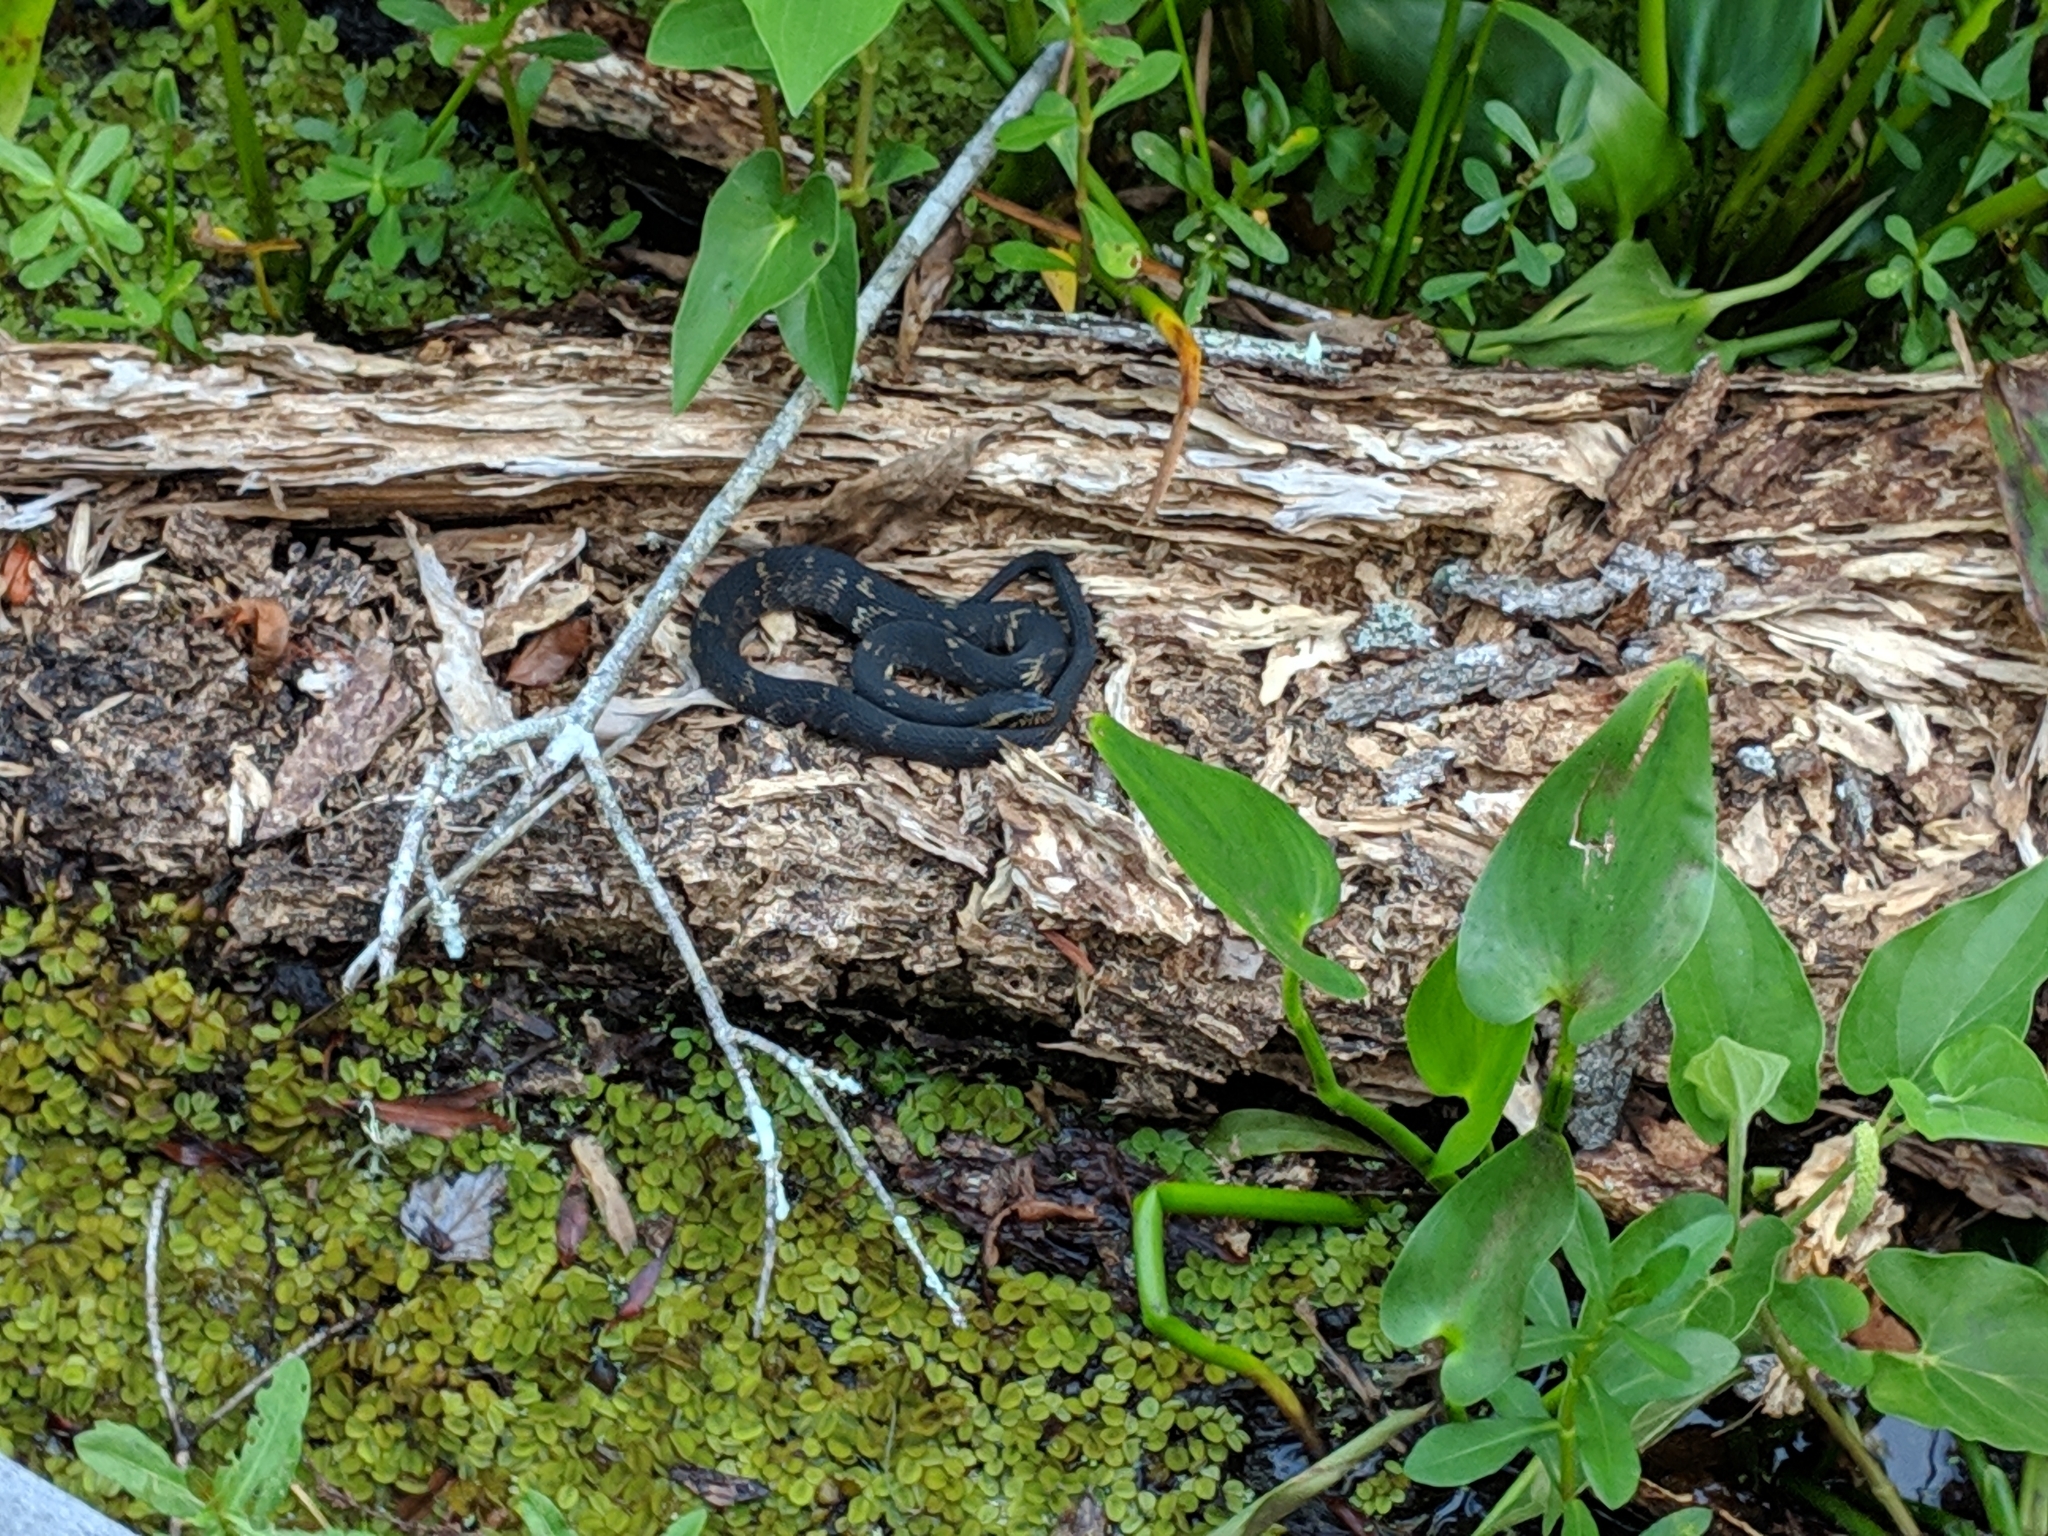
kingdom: Animalia
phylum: Chordata
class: Squamata
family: Colubridae
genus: Nerodia
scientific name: Nerodia fasciata
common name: Southern water snake
